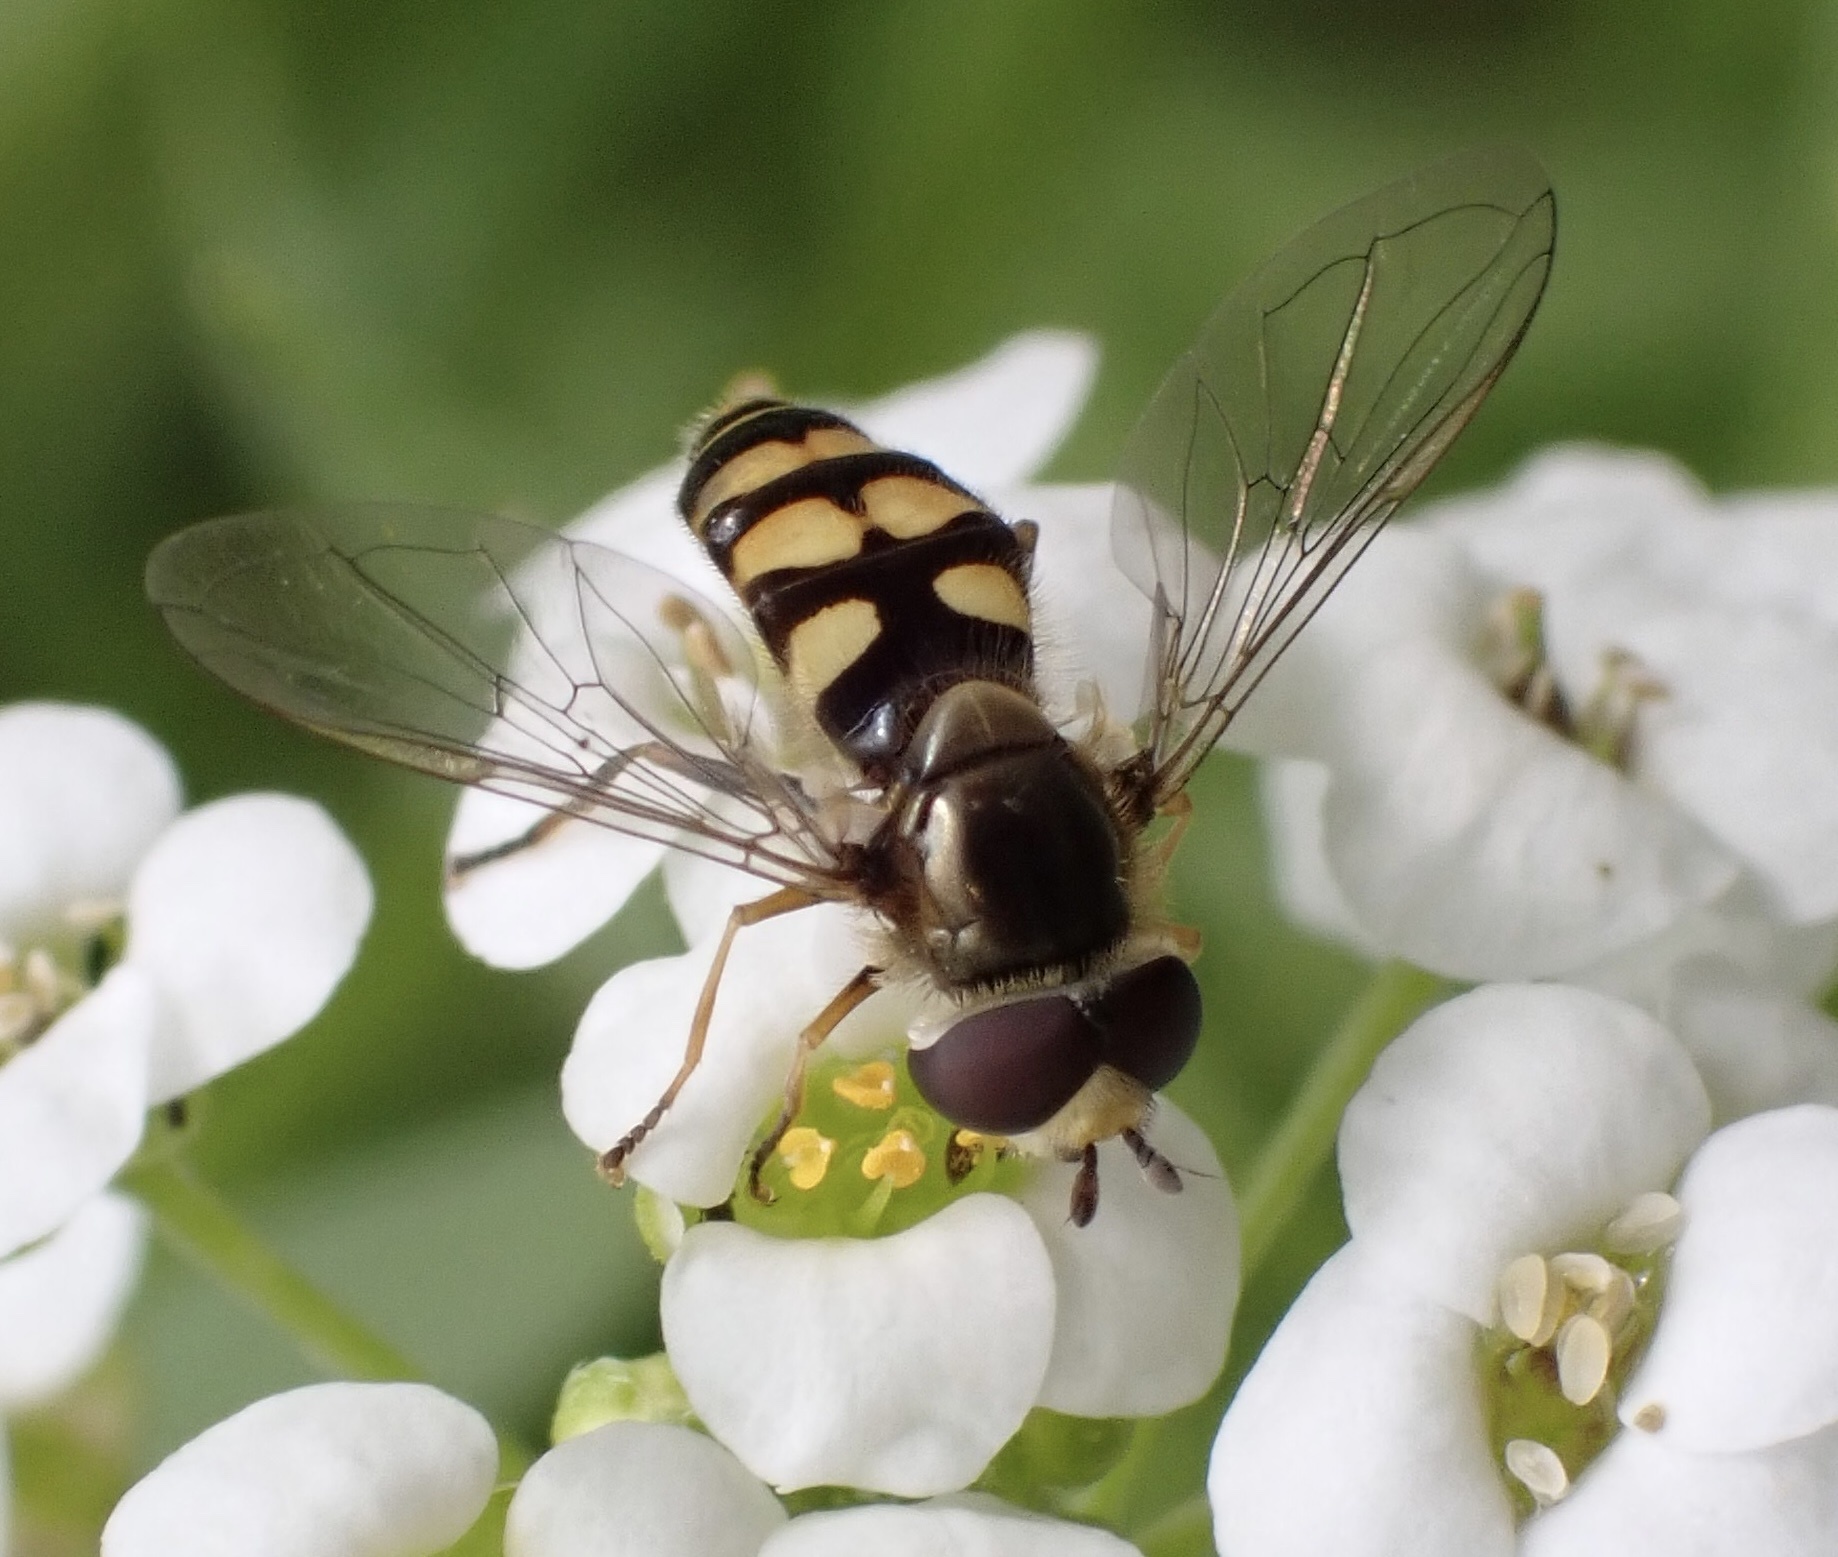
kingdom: Animalia
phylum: Arthropoda
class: Insecta
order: Diptera
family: Syrphidae
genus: Eupeodes
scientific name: Eupeodes corollae
